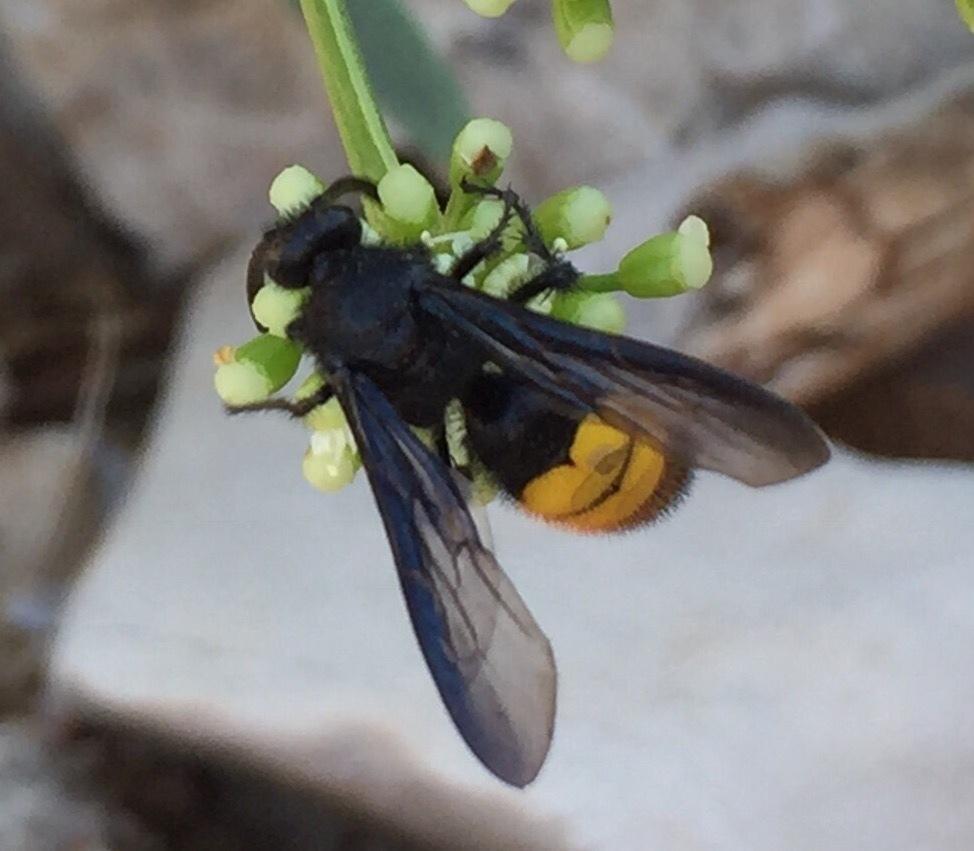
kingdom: Animalia
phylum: Arthropoda
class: Insecta
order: Hymenoptera
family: Scoliidae
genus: Scolia
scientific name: Scolia hirta
